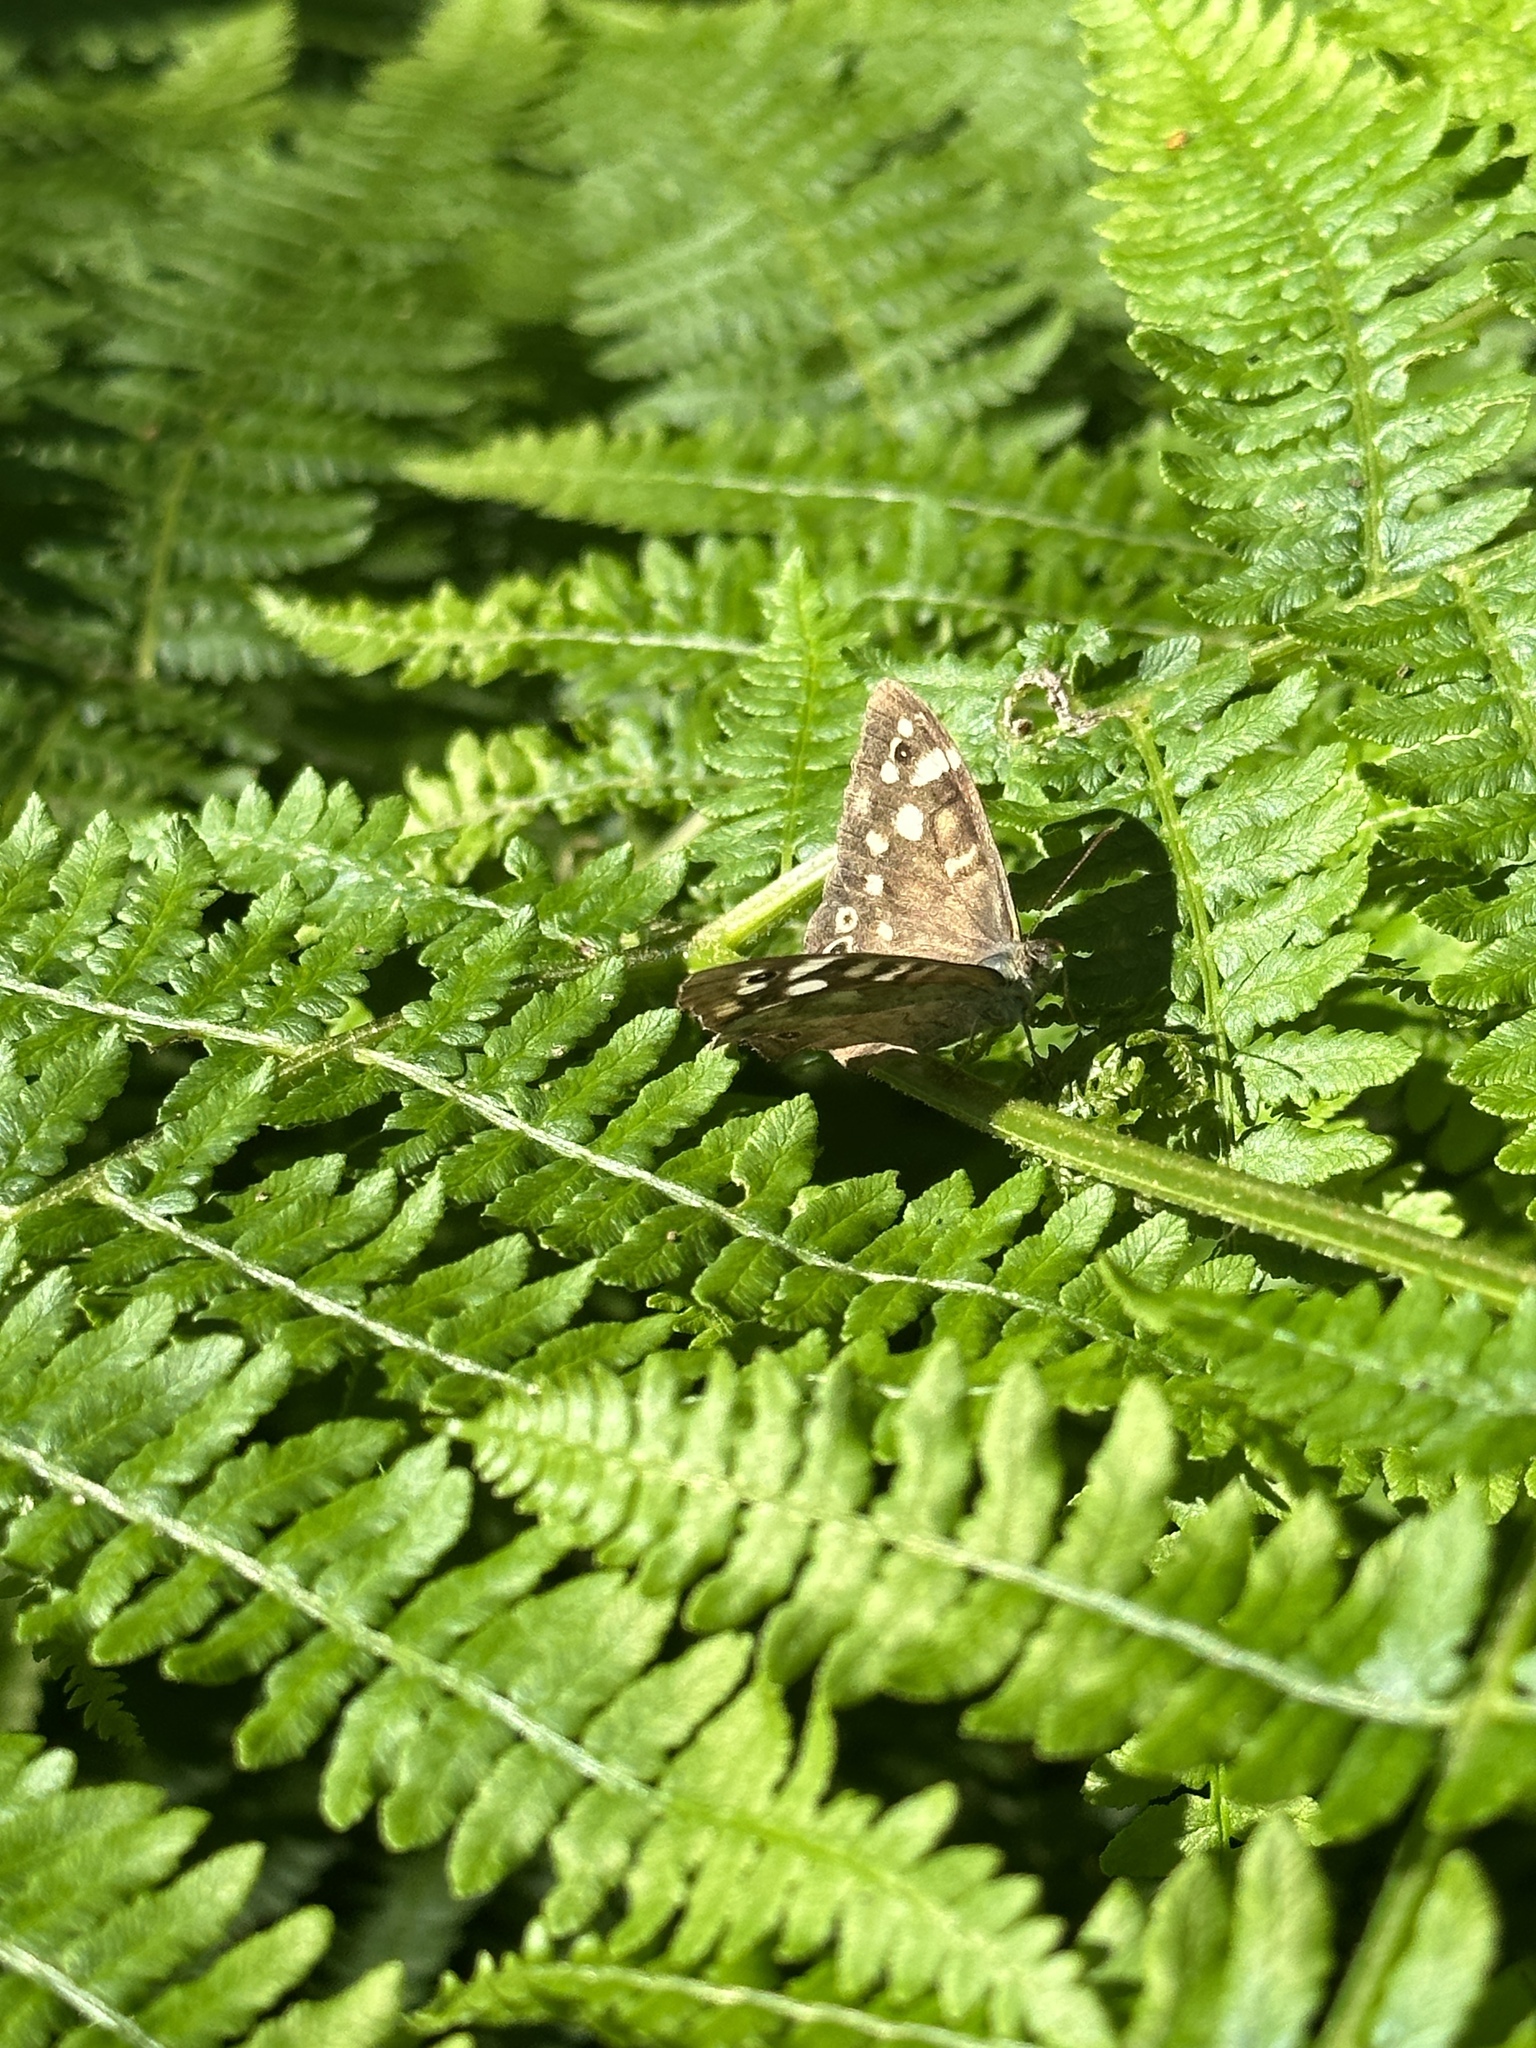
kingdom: Animalia
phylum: Arthropoda
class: Insecta
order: Lepidoptera
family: Nymphalidae
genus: Pararge
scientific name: Pararge aegeria
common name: Speckled wood
